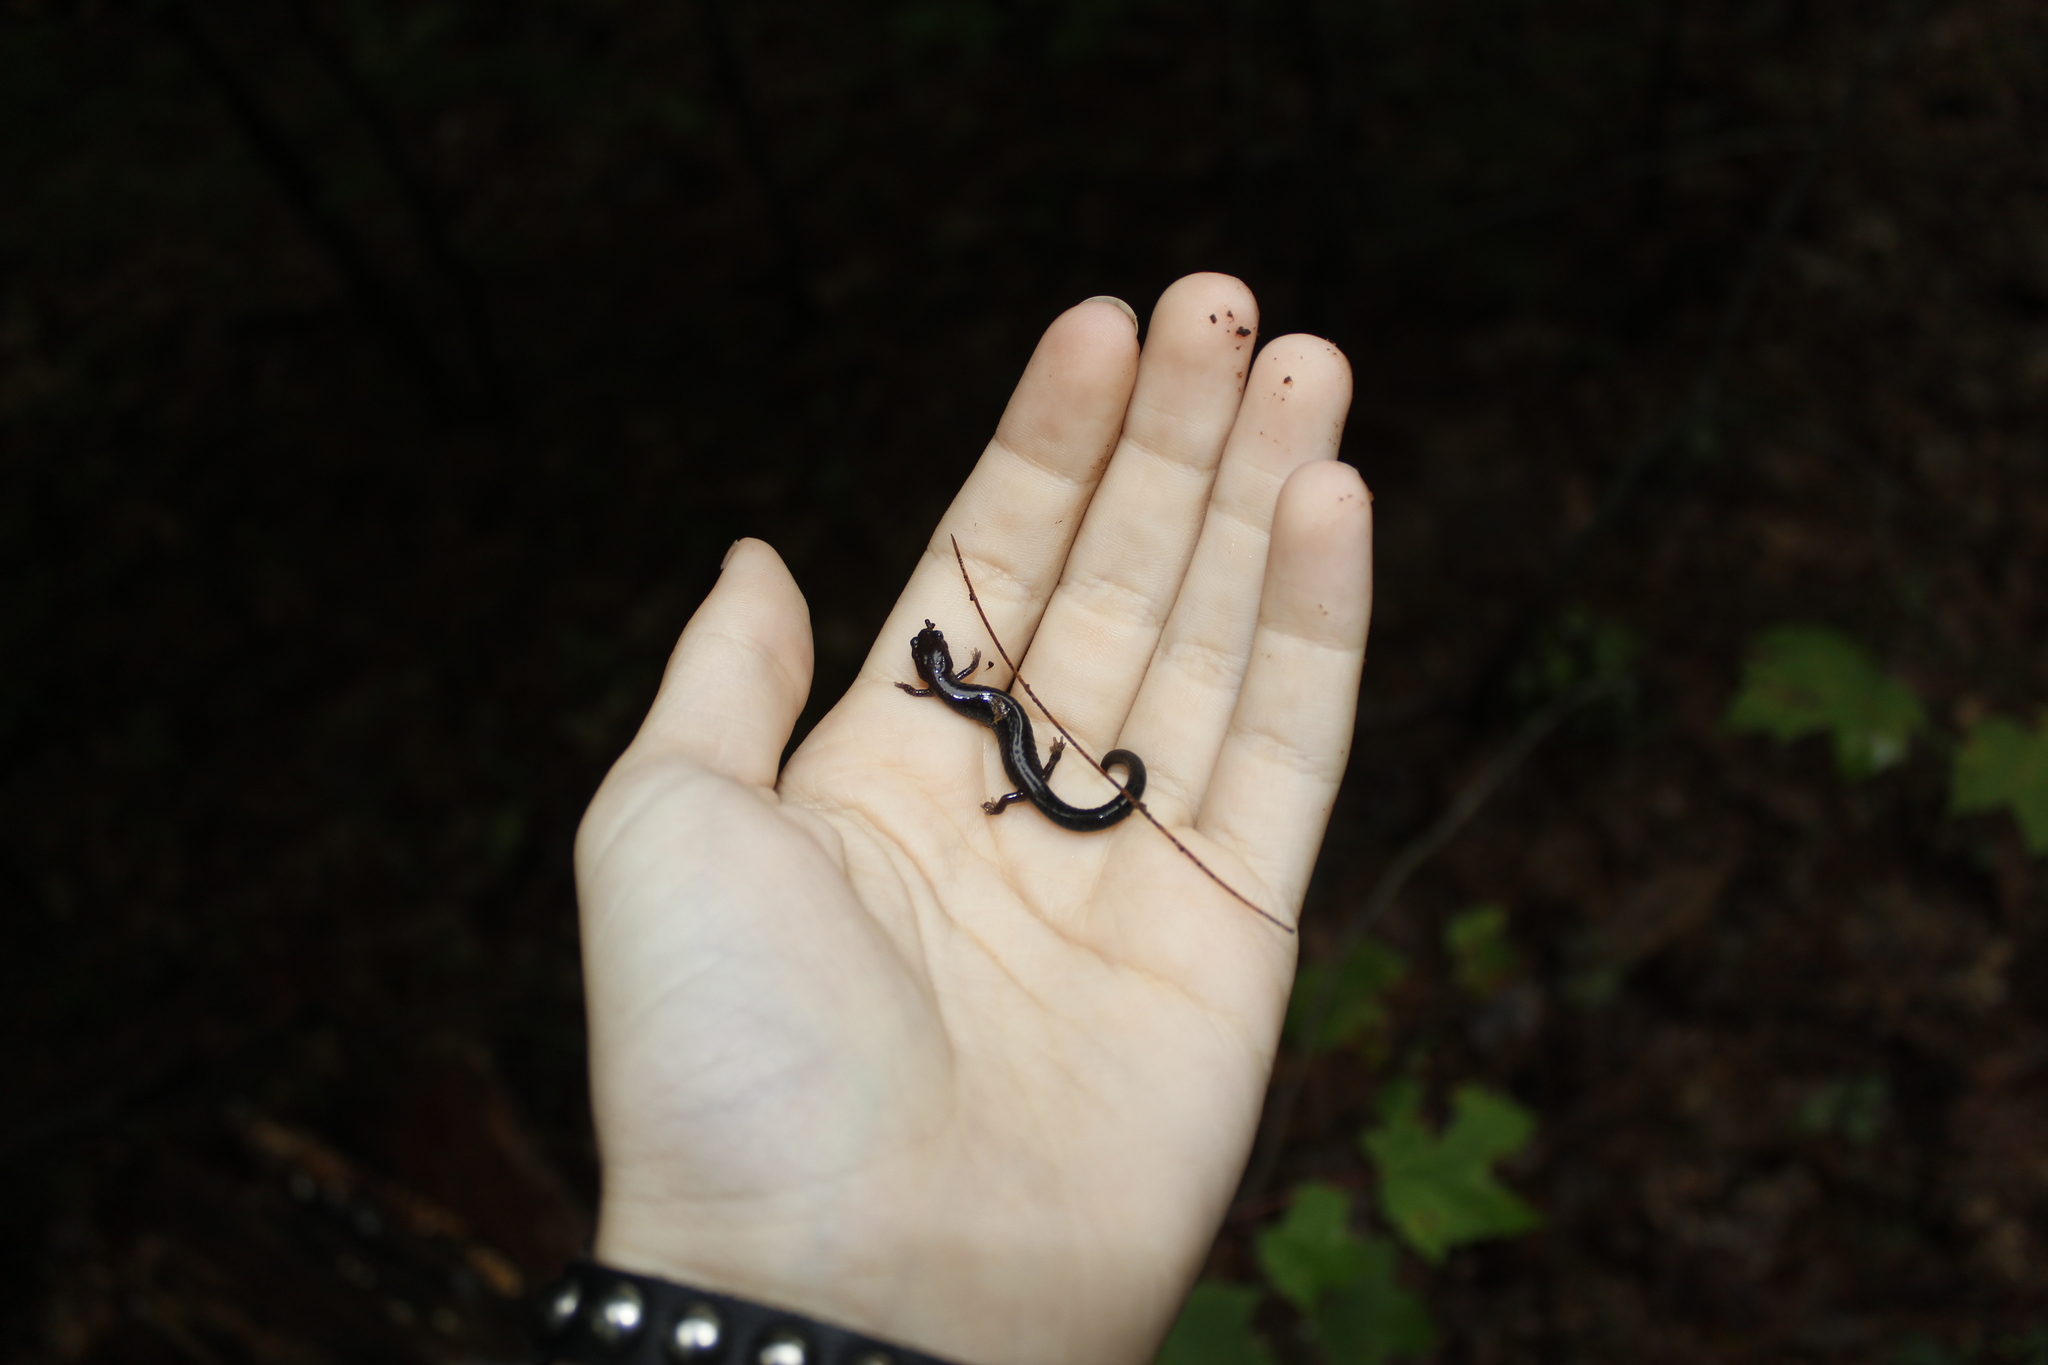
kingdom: Animalia
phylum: Chordata
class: Amphibia
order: Caudata
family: Plethodontidae
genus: Plethodon
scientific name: Plethodon cinereus
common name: Redback salamander
